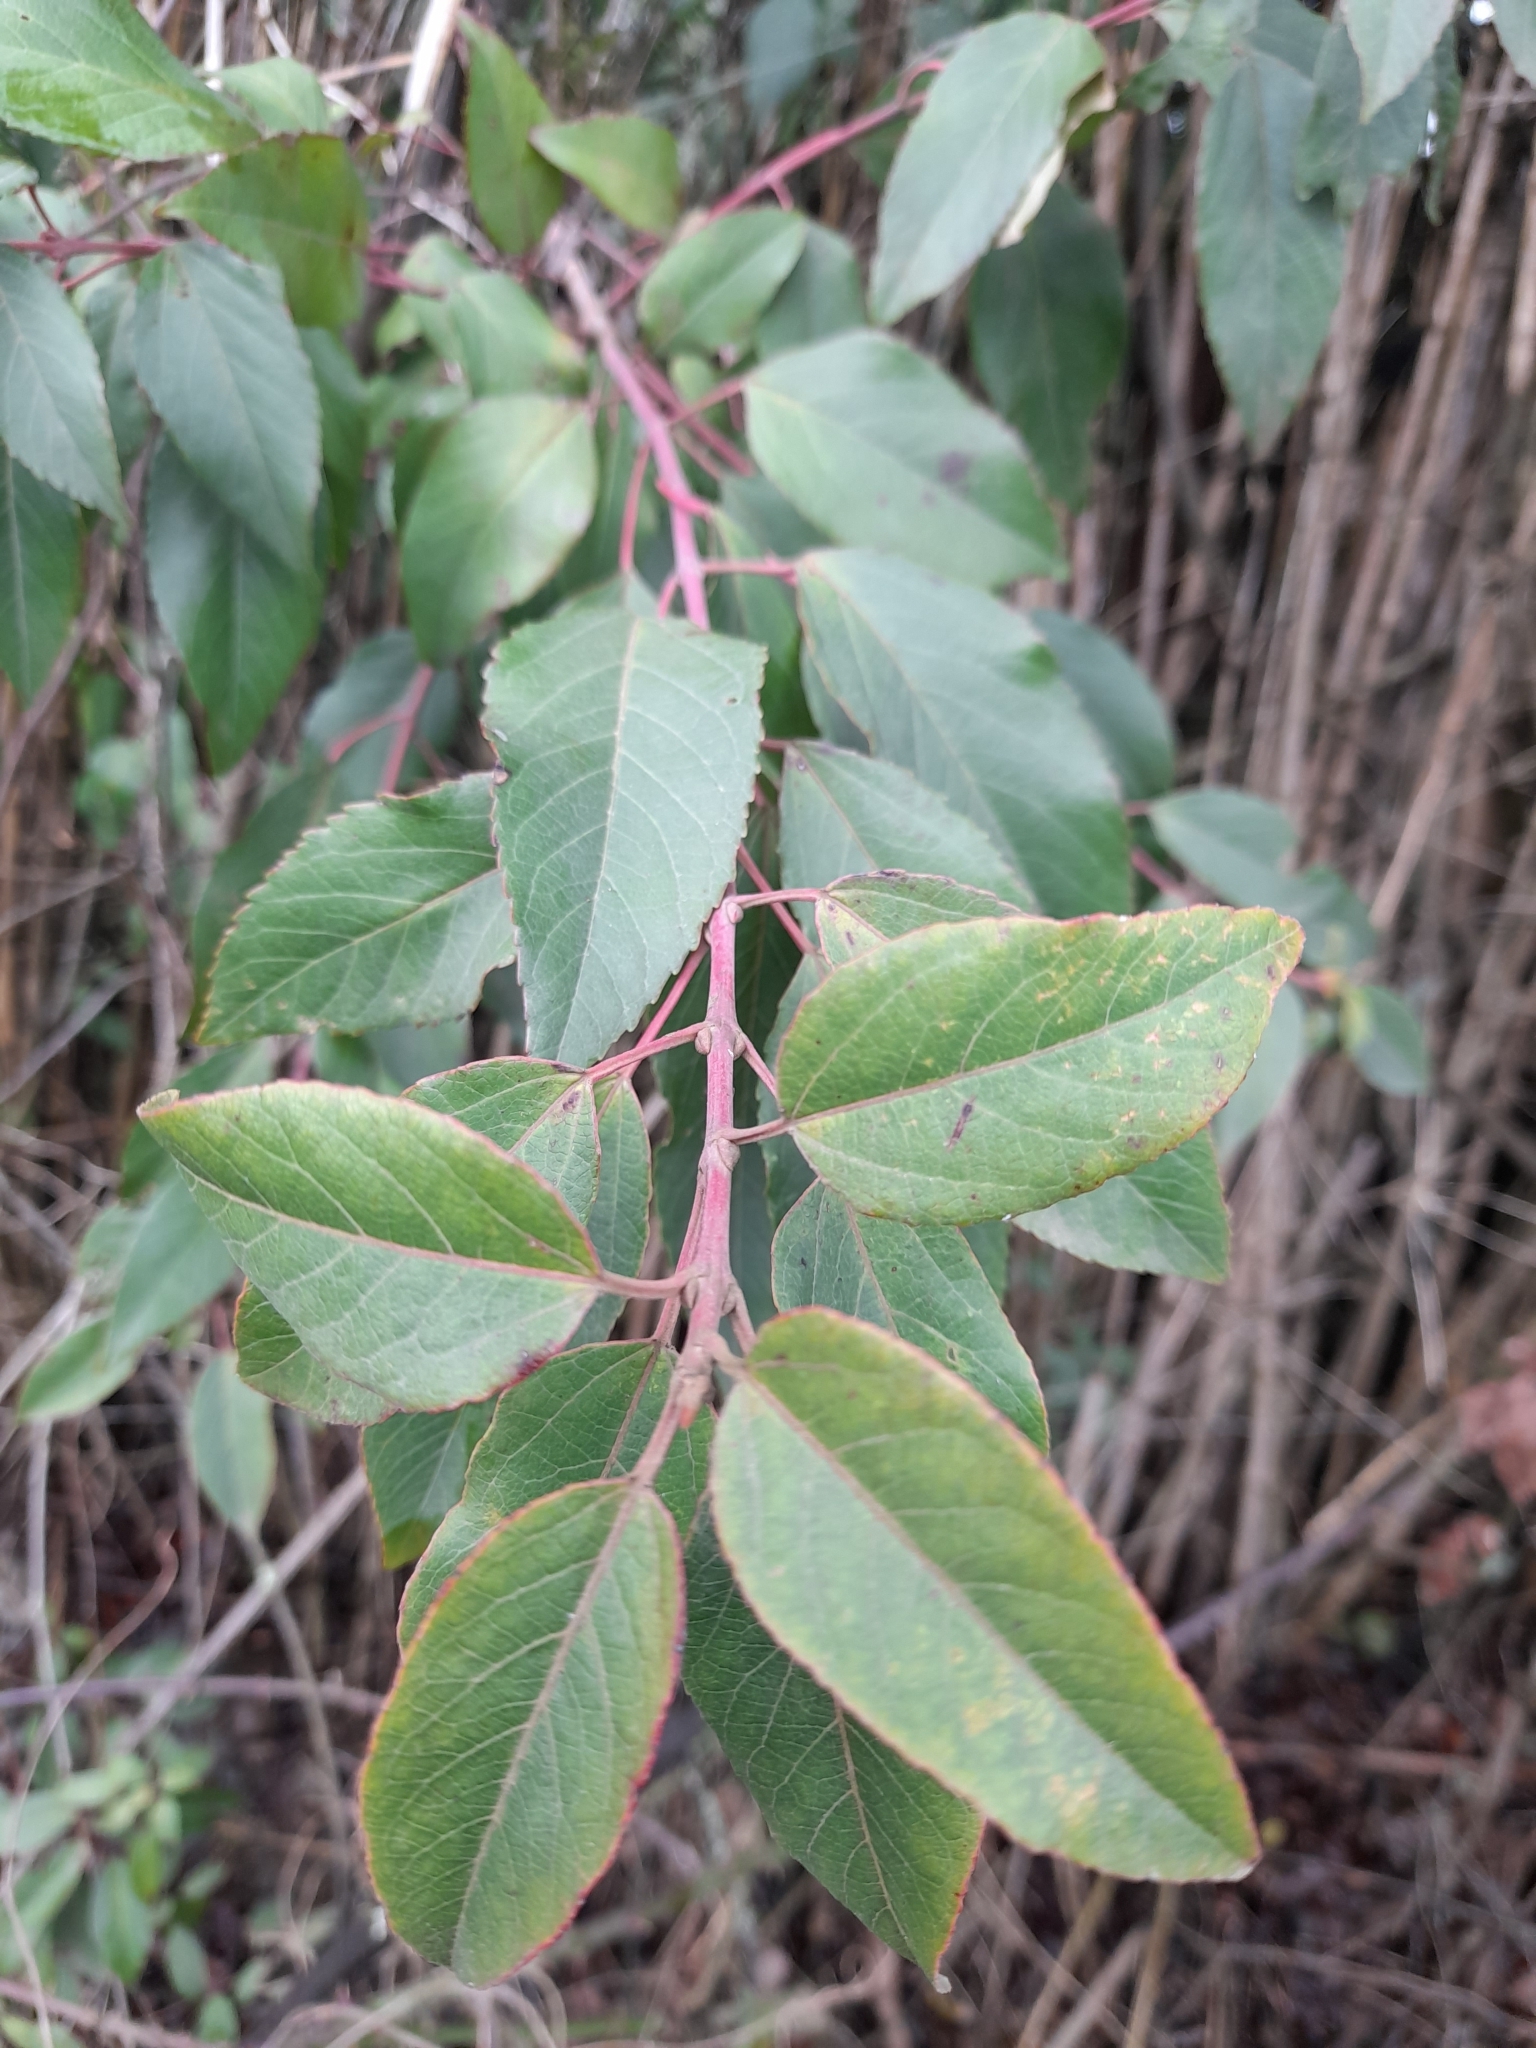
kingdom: Plantae
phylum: Tracheophyta
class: Magnoliopsida
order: Oxalidales
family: Elaeocarpaceae
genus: Aristotelia
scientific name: Aristotelia chilensis
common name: Maquei
